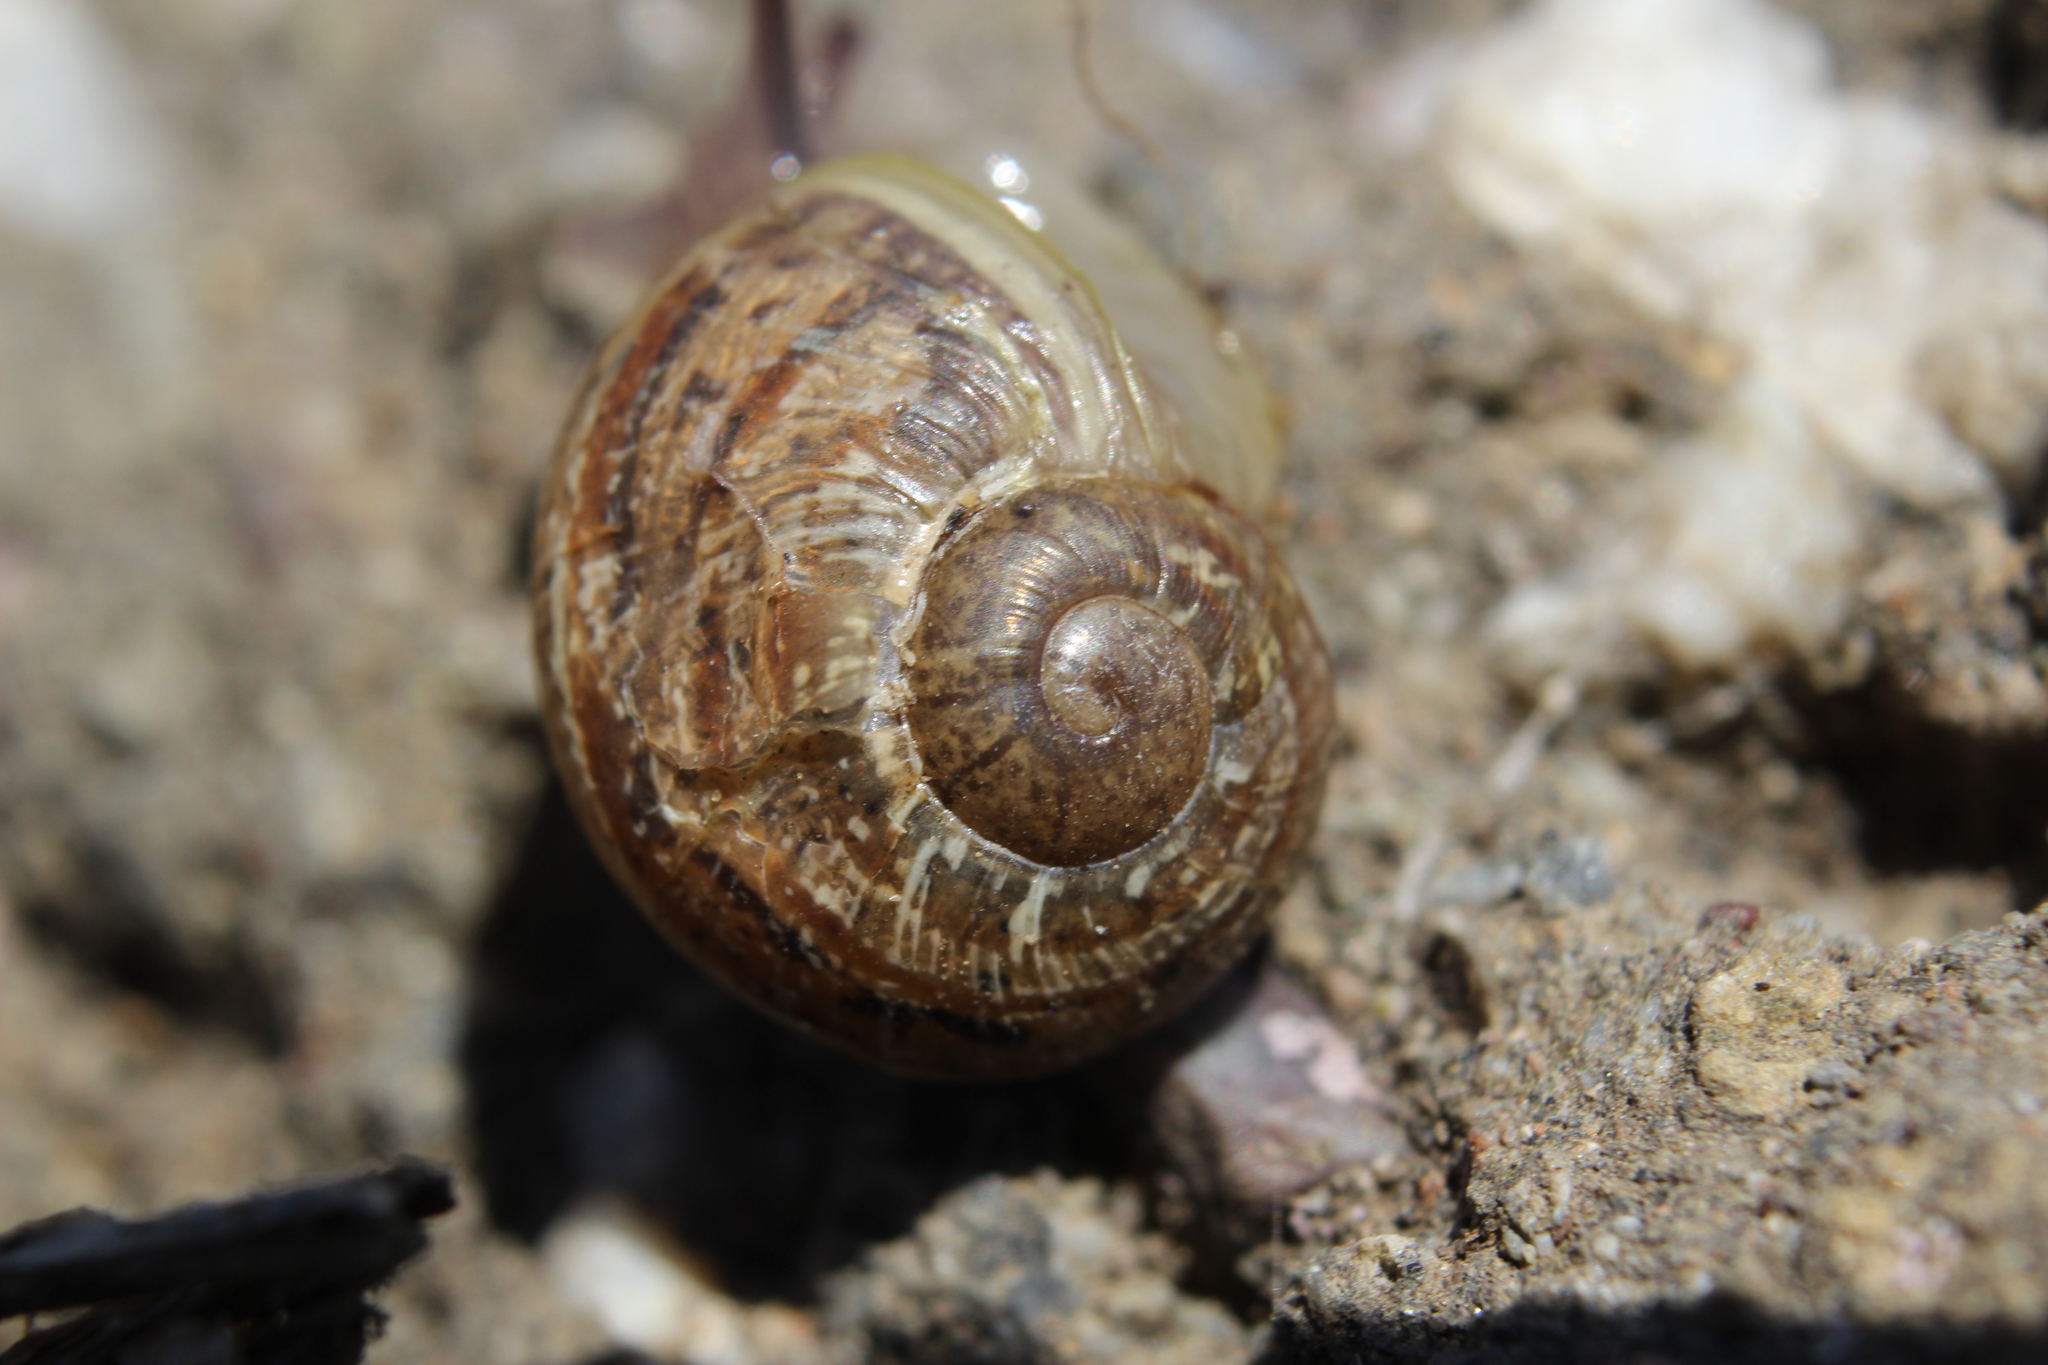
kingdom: Animalia
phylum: Mollusca
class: Gastropoda
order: Stylommatophora
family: Helicidae
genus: Cornu
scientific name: Cornu aspersum
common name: Brown garden snail
